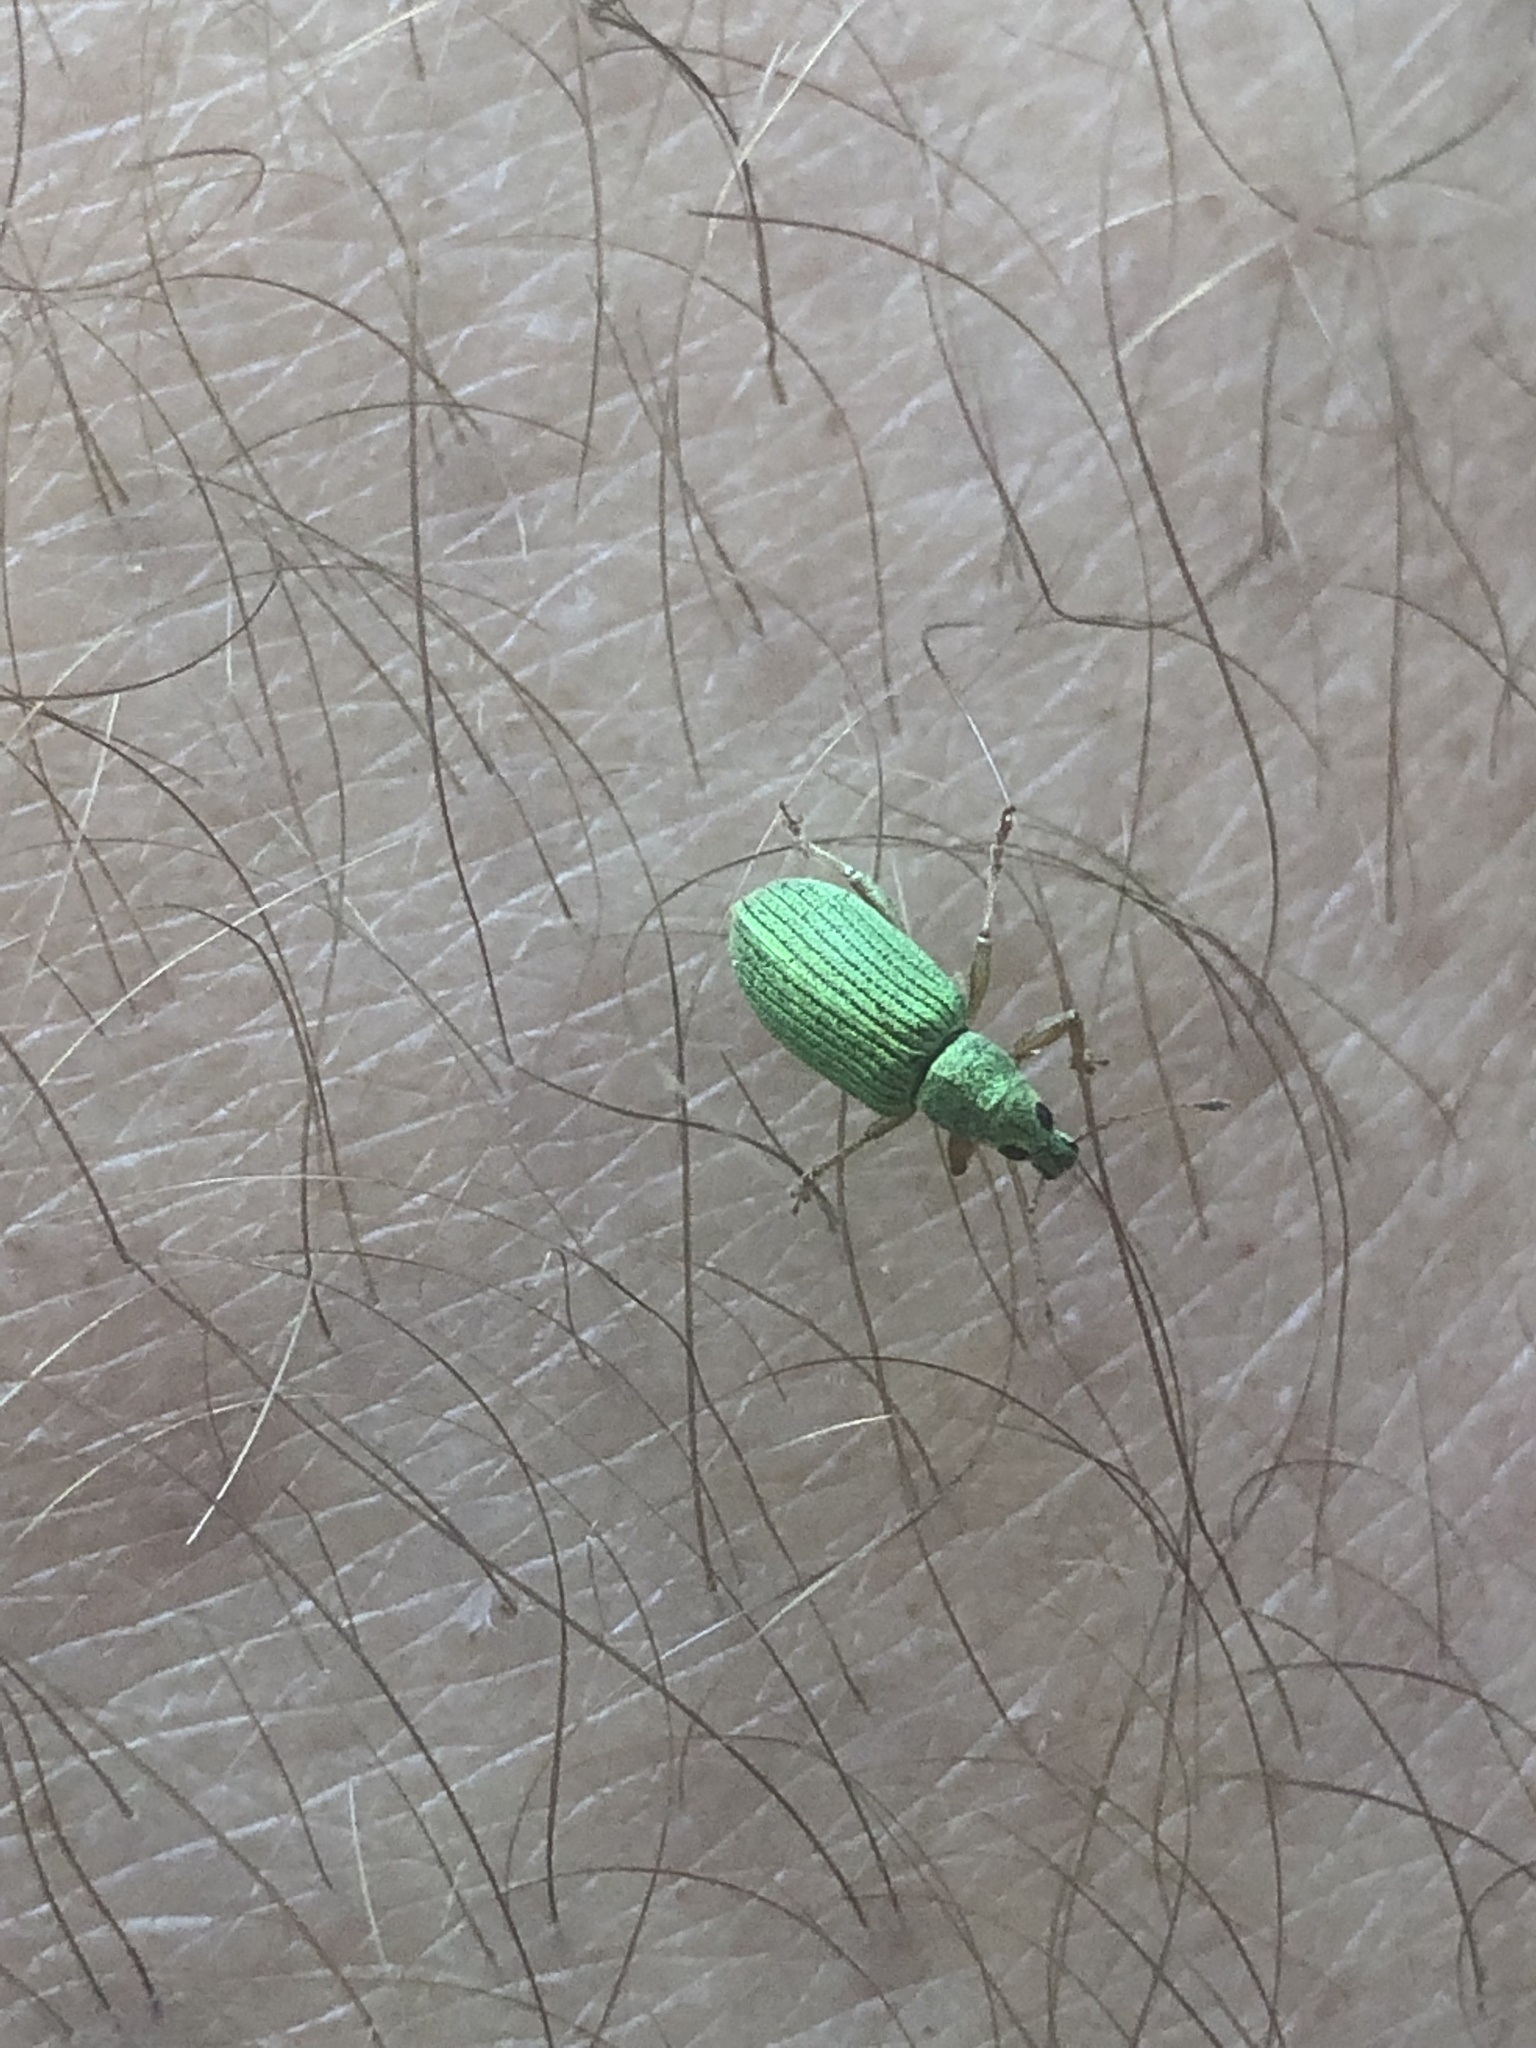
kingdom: Animalia
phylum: Arthropoda
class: Insecta
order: Coleoptera
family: Curculionidae
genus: Polydrusus
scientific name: Polydrusus formosus
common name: Weevil
